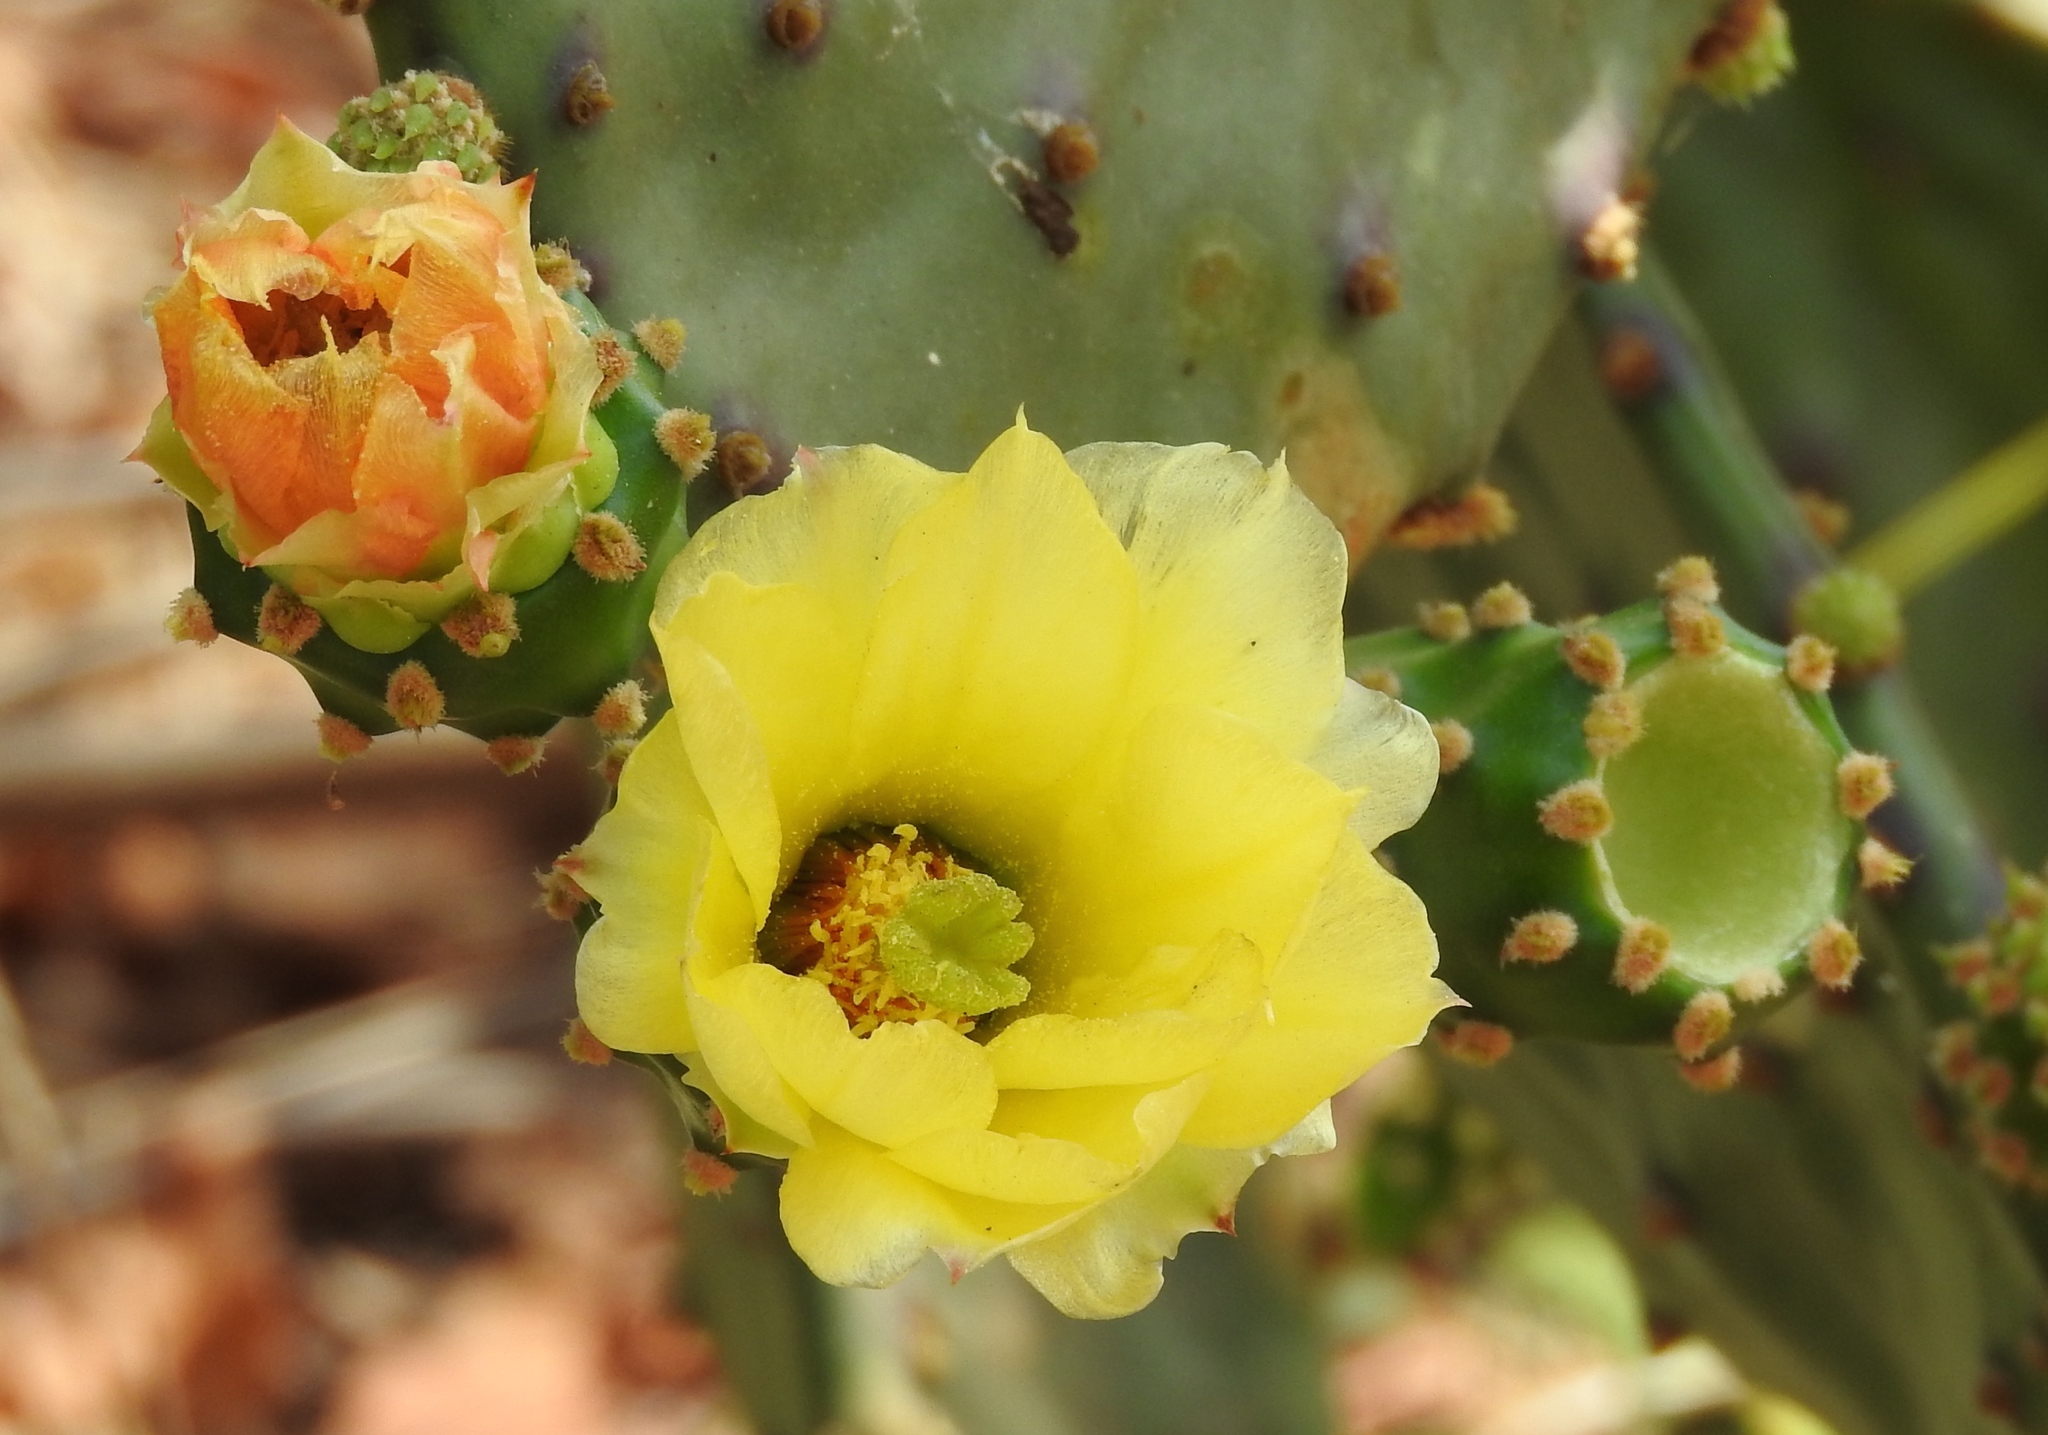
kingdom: Plantae
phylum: Tracheophyta
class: Magnoliopsida
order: Caryophyllales
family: Cactaceae
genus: Opuntia
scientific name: Opuntia
